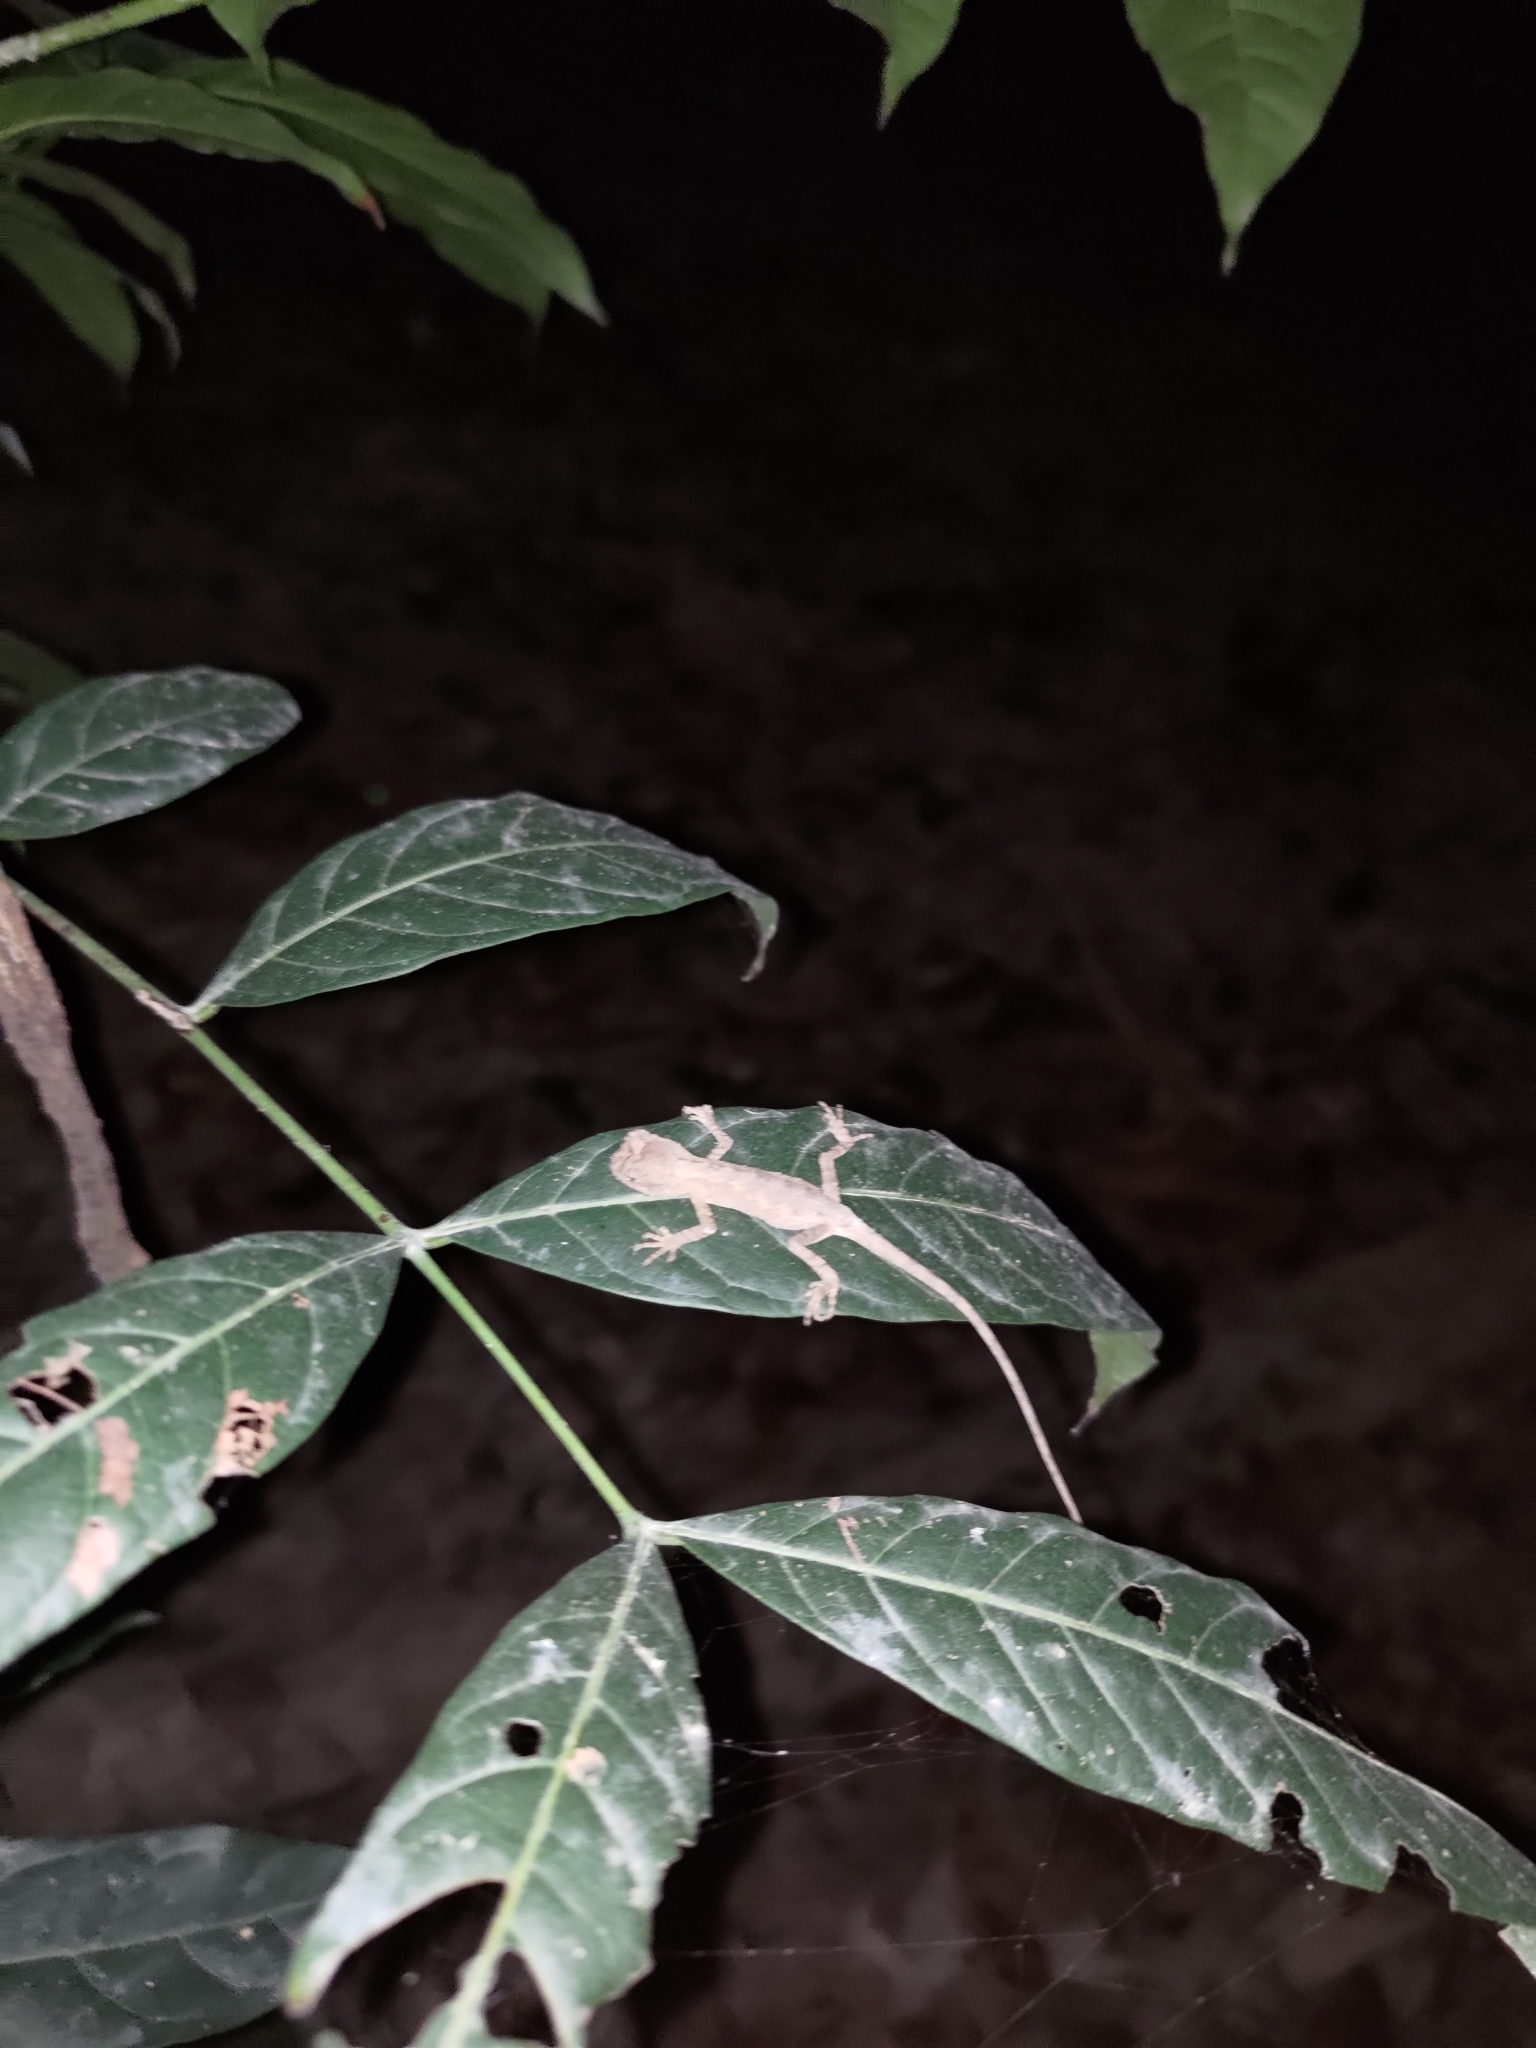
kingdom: Animalia
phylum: Chordata
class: Squamata
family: Agamidae
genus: Diploderma
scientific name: Diploderma swinhonis
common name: Taiwan japalure
